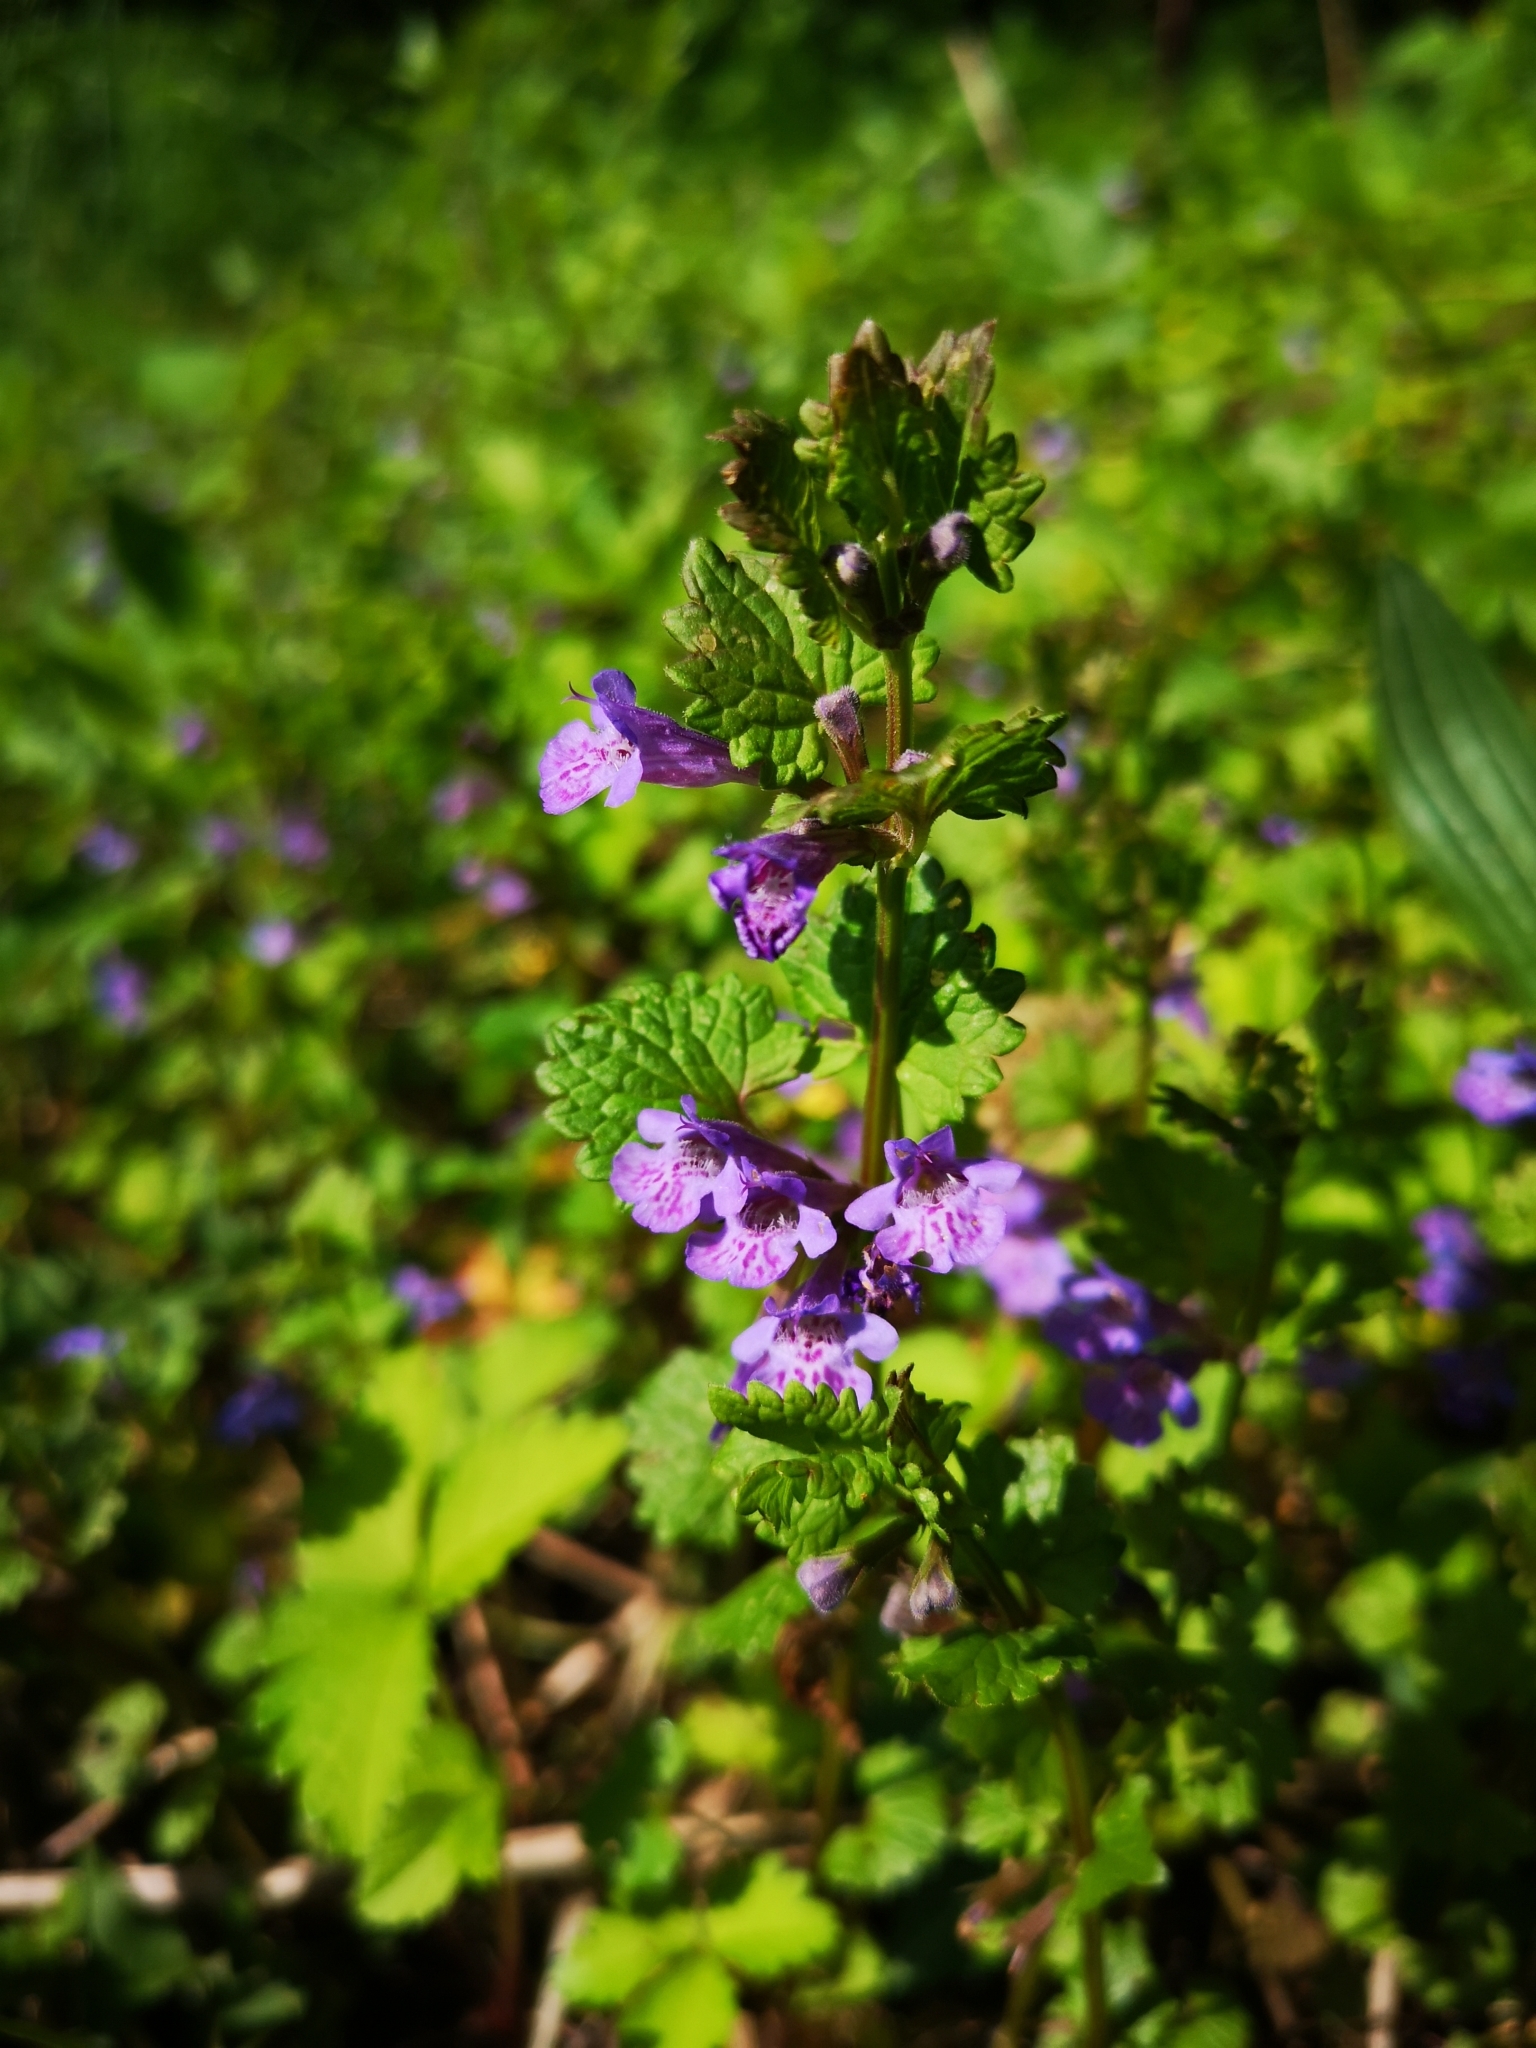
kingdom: Plantae
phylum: Tracheophyta
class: Magnoliopsida
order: Lamiales
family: Lamiaceae
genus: Glechoma
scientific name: Glechoma hederacea
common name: Ground ivy
